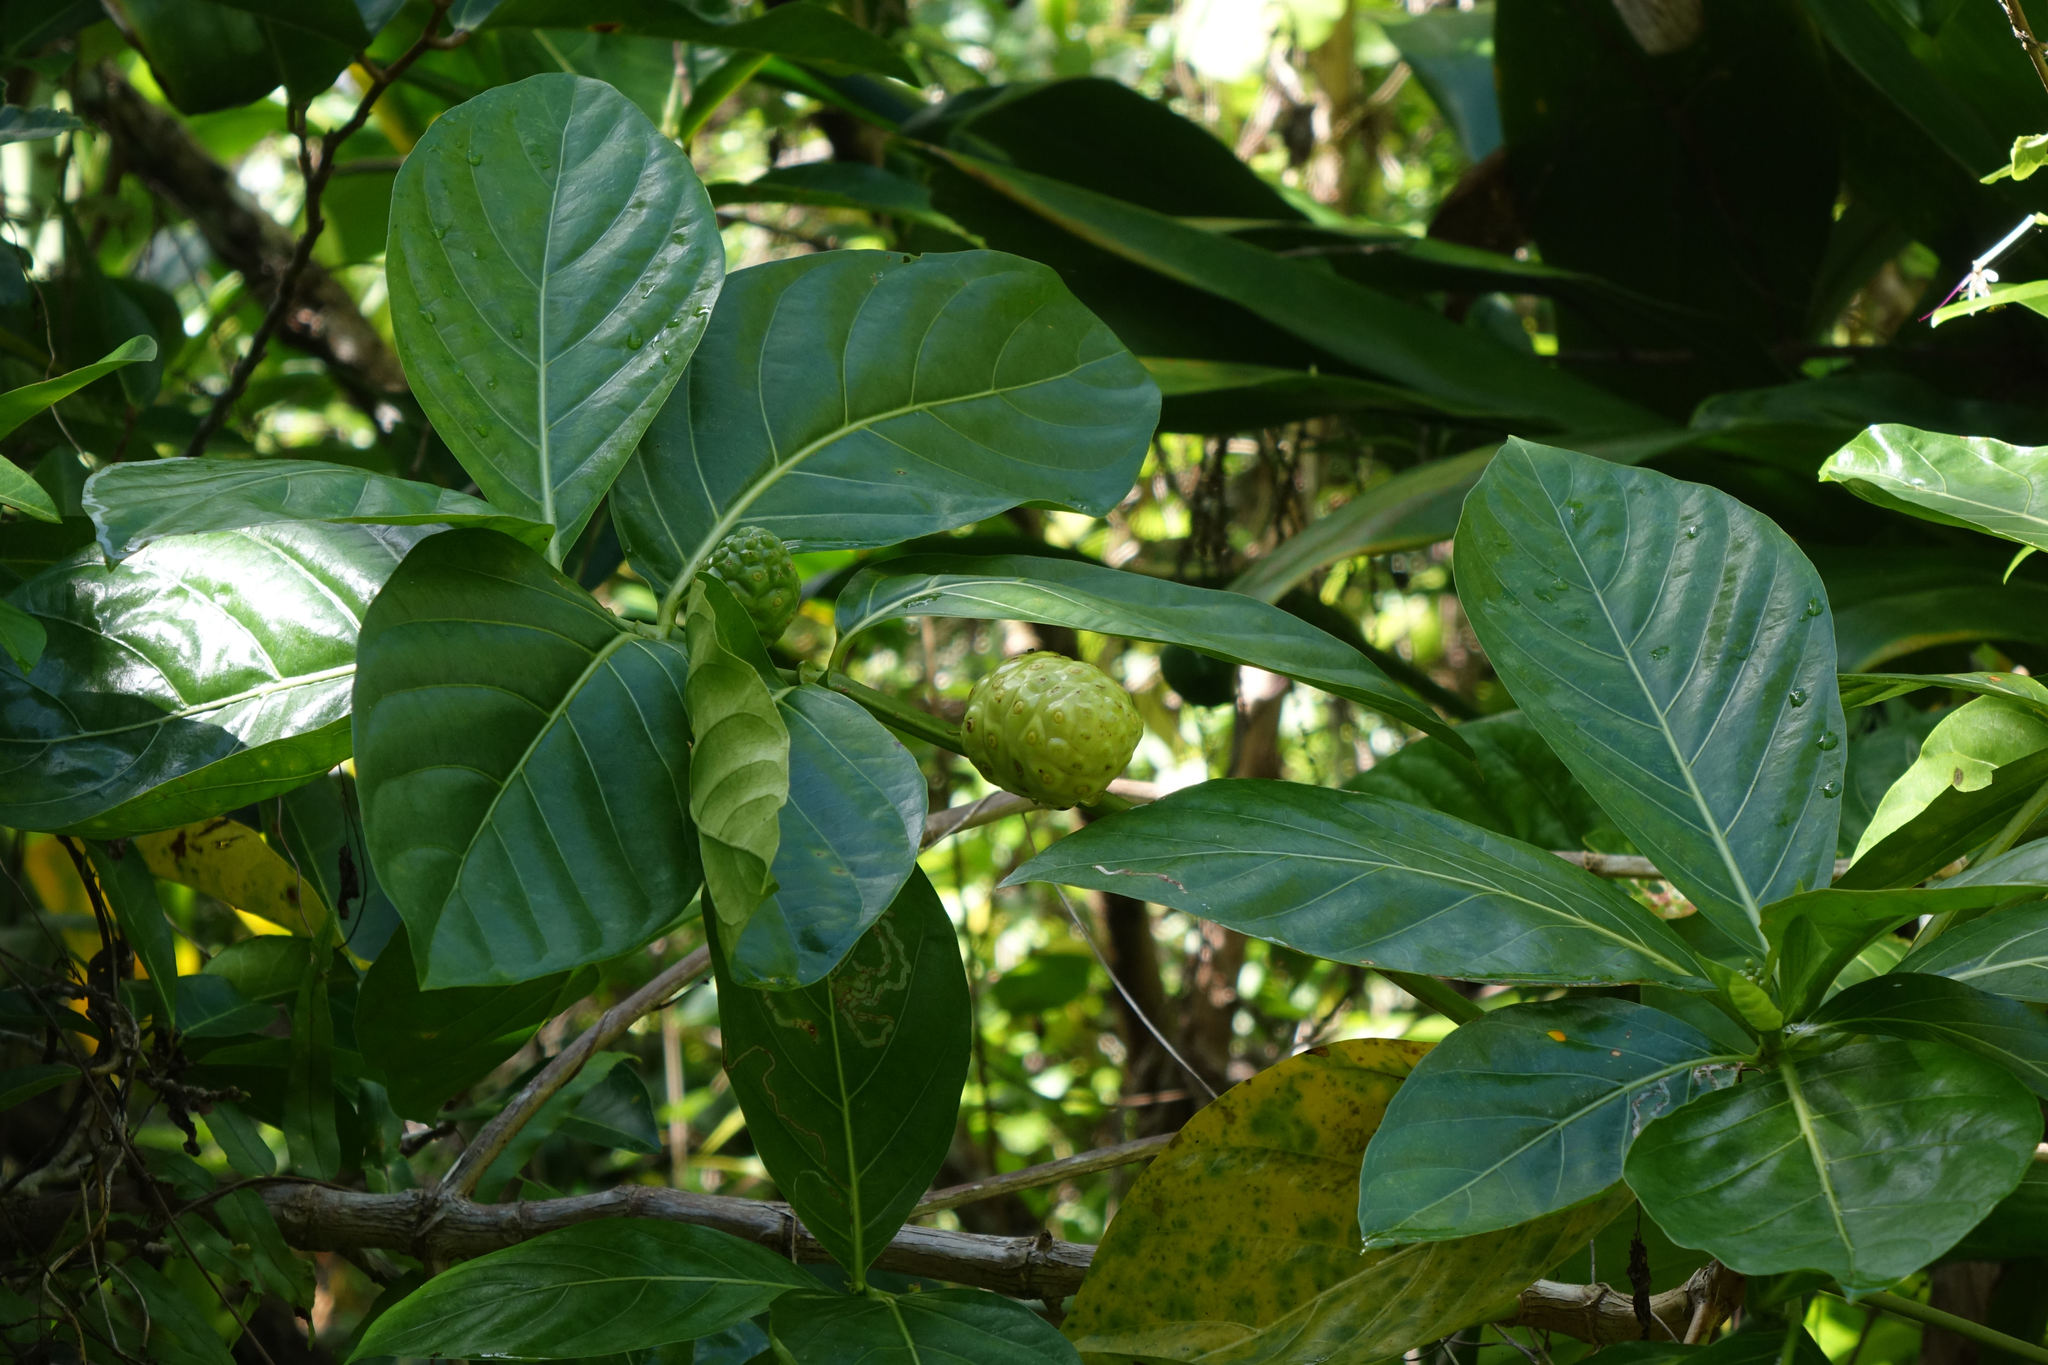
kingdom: Plantae
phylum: Tracheophyta
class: Magnoliopsida
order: Gentianales
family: Rubiaceae
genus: Morinda
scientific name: Morinda citrifolia
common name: Indian-mulberry
